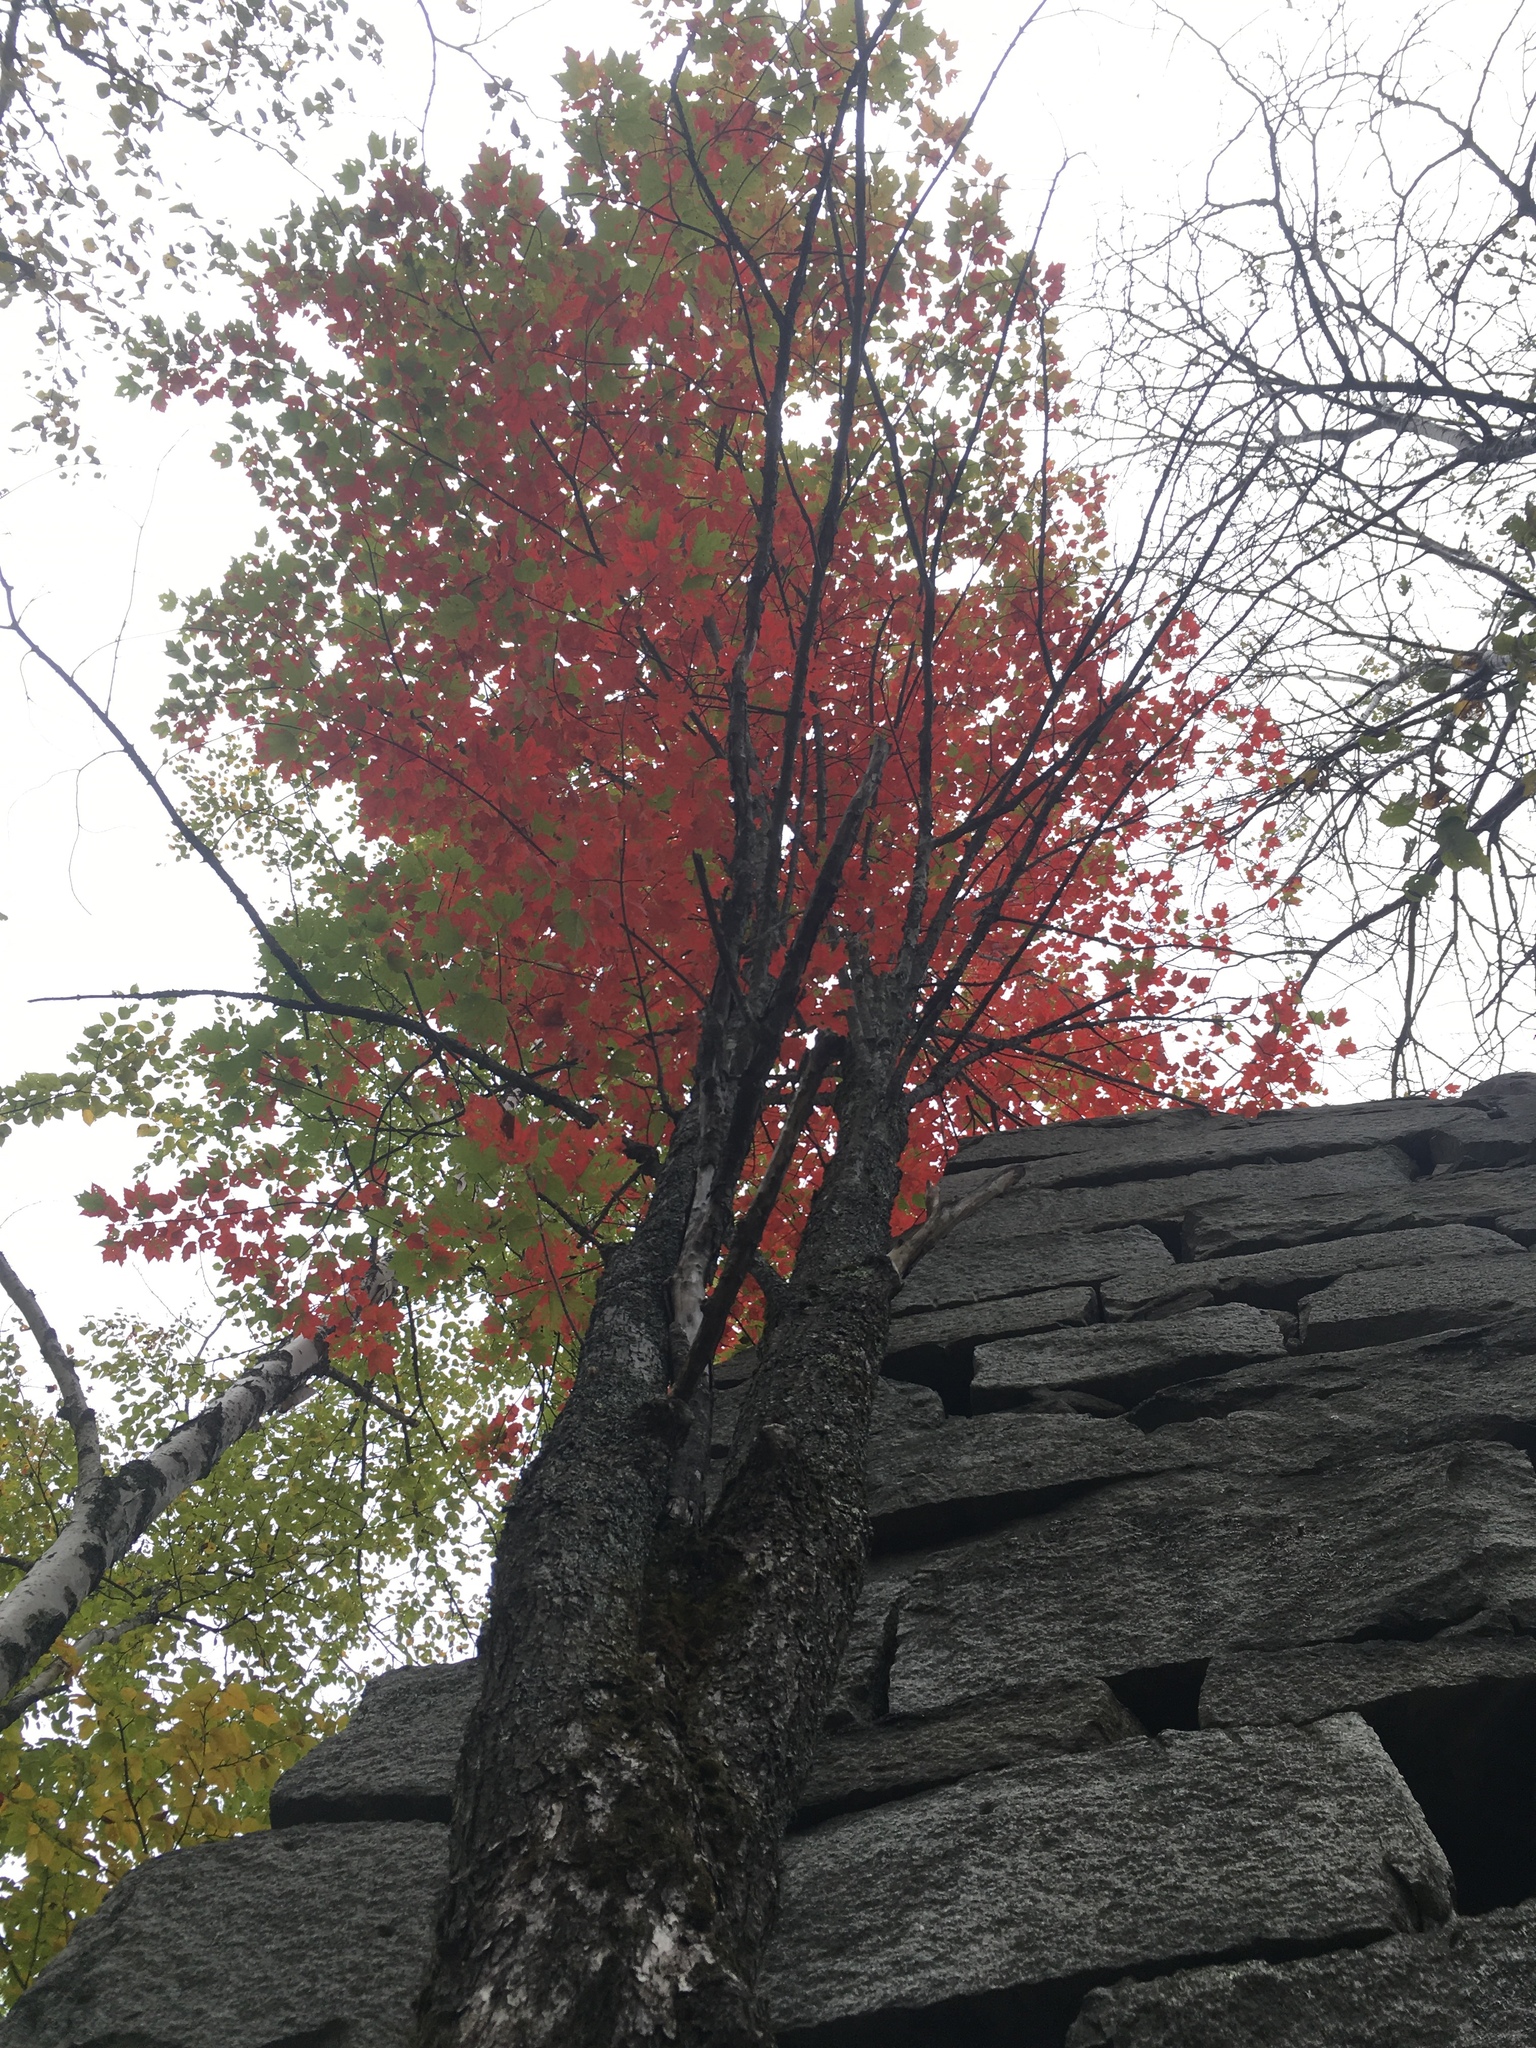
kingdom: Plantae
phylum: Tracheophyta
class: Magnoliopsida
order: Sapindales
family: Sapindaceae
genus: Acer
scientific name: Acer rubrum
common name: Red maple
